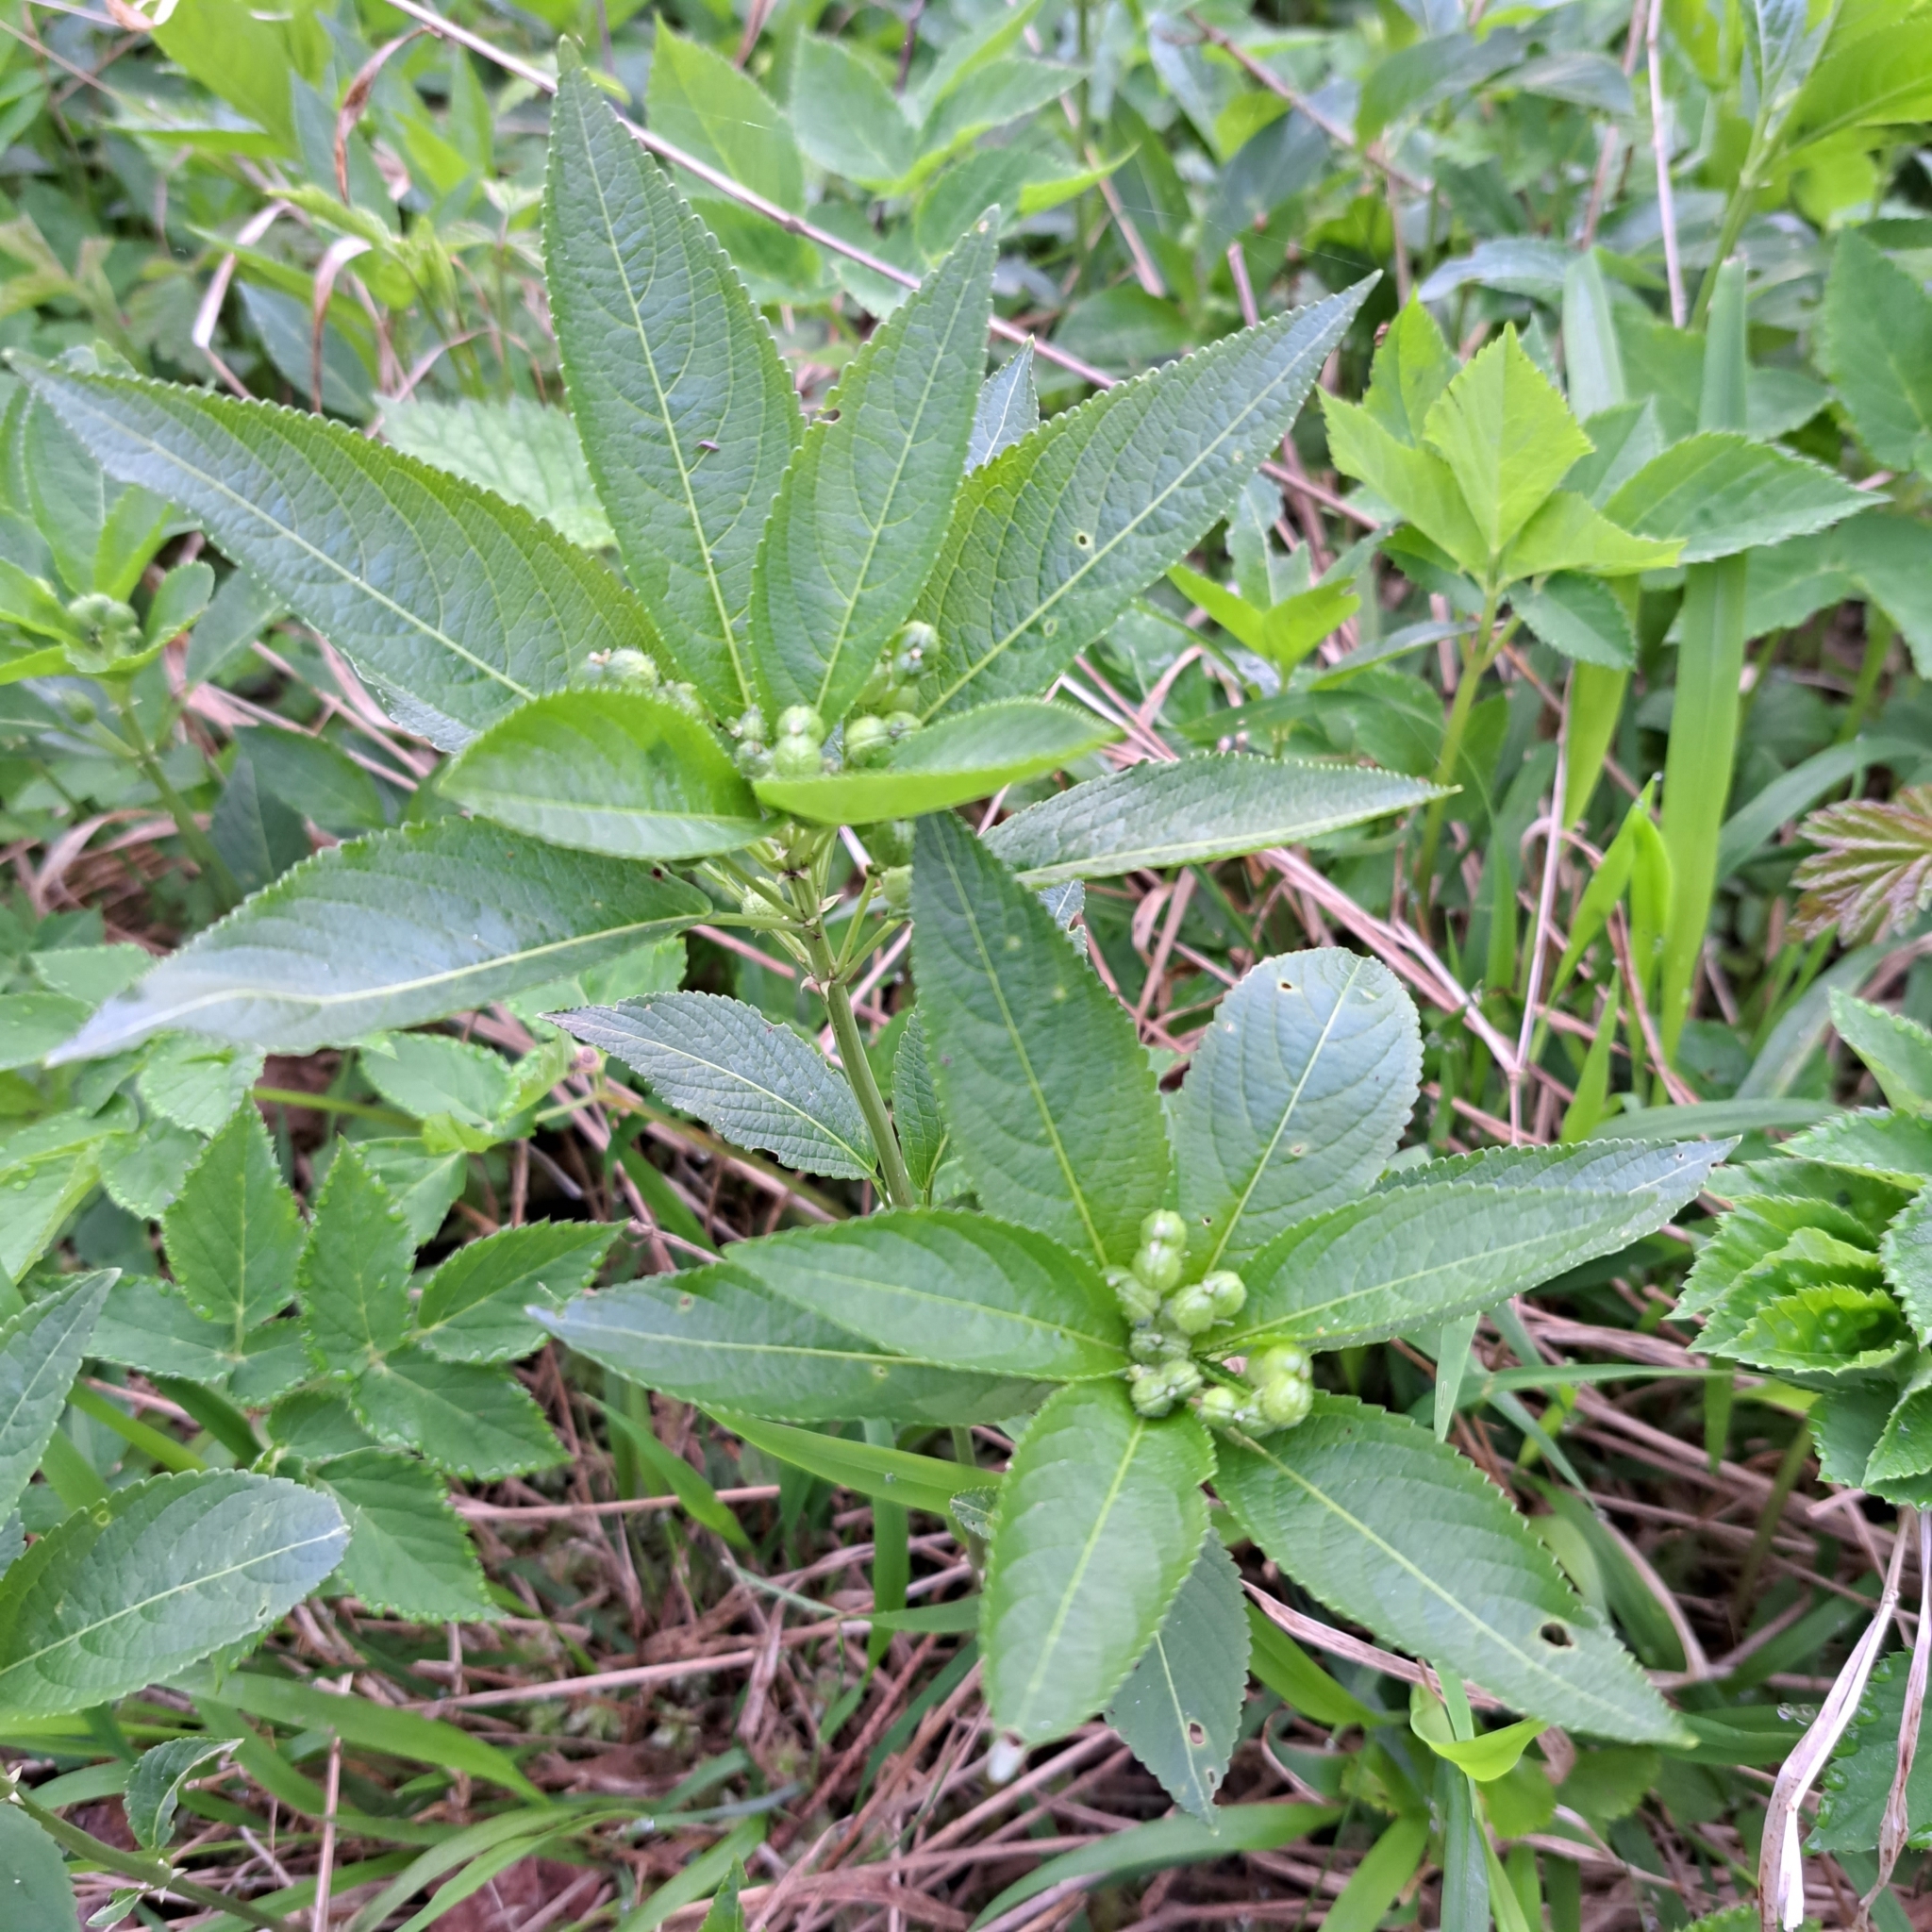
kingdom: Plantae
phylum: Tracheophyta
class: Magnoliopsida
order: Malpighiales
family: Euphorbiaceae
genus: Mercurialis
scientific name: Mercurialis perennis
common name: Dog mercury
